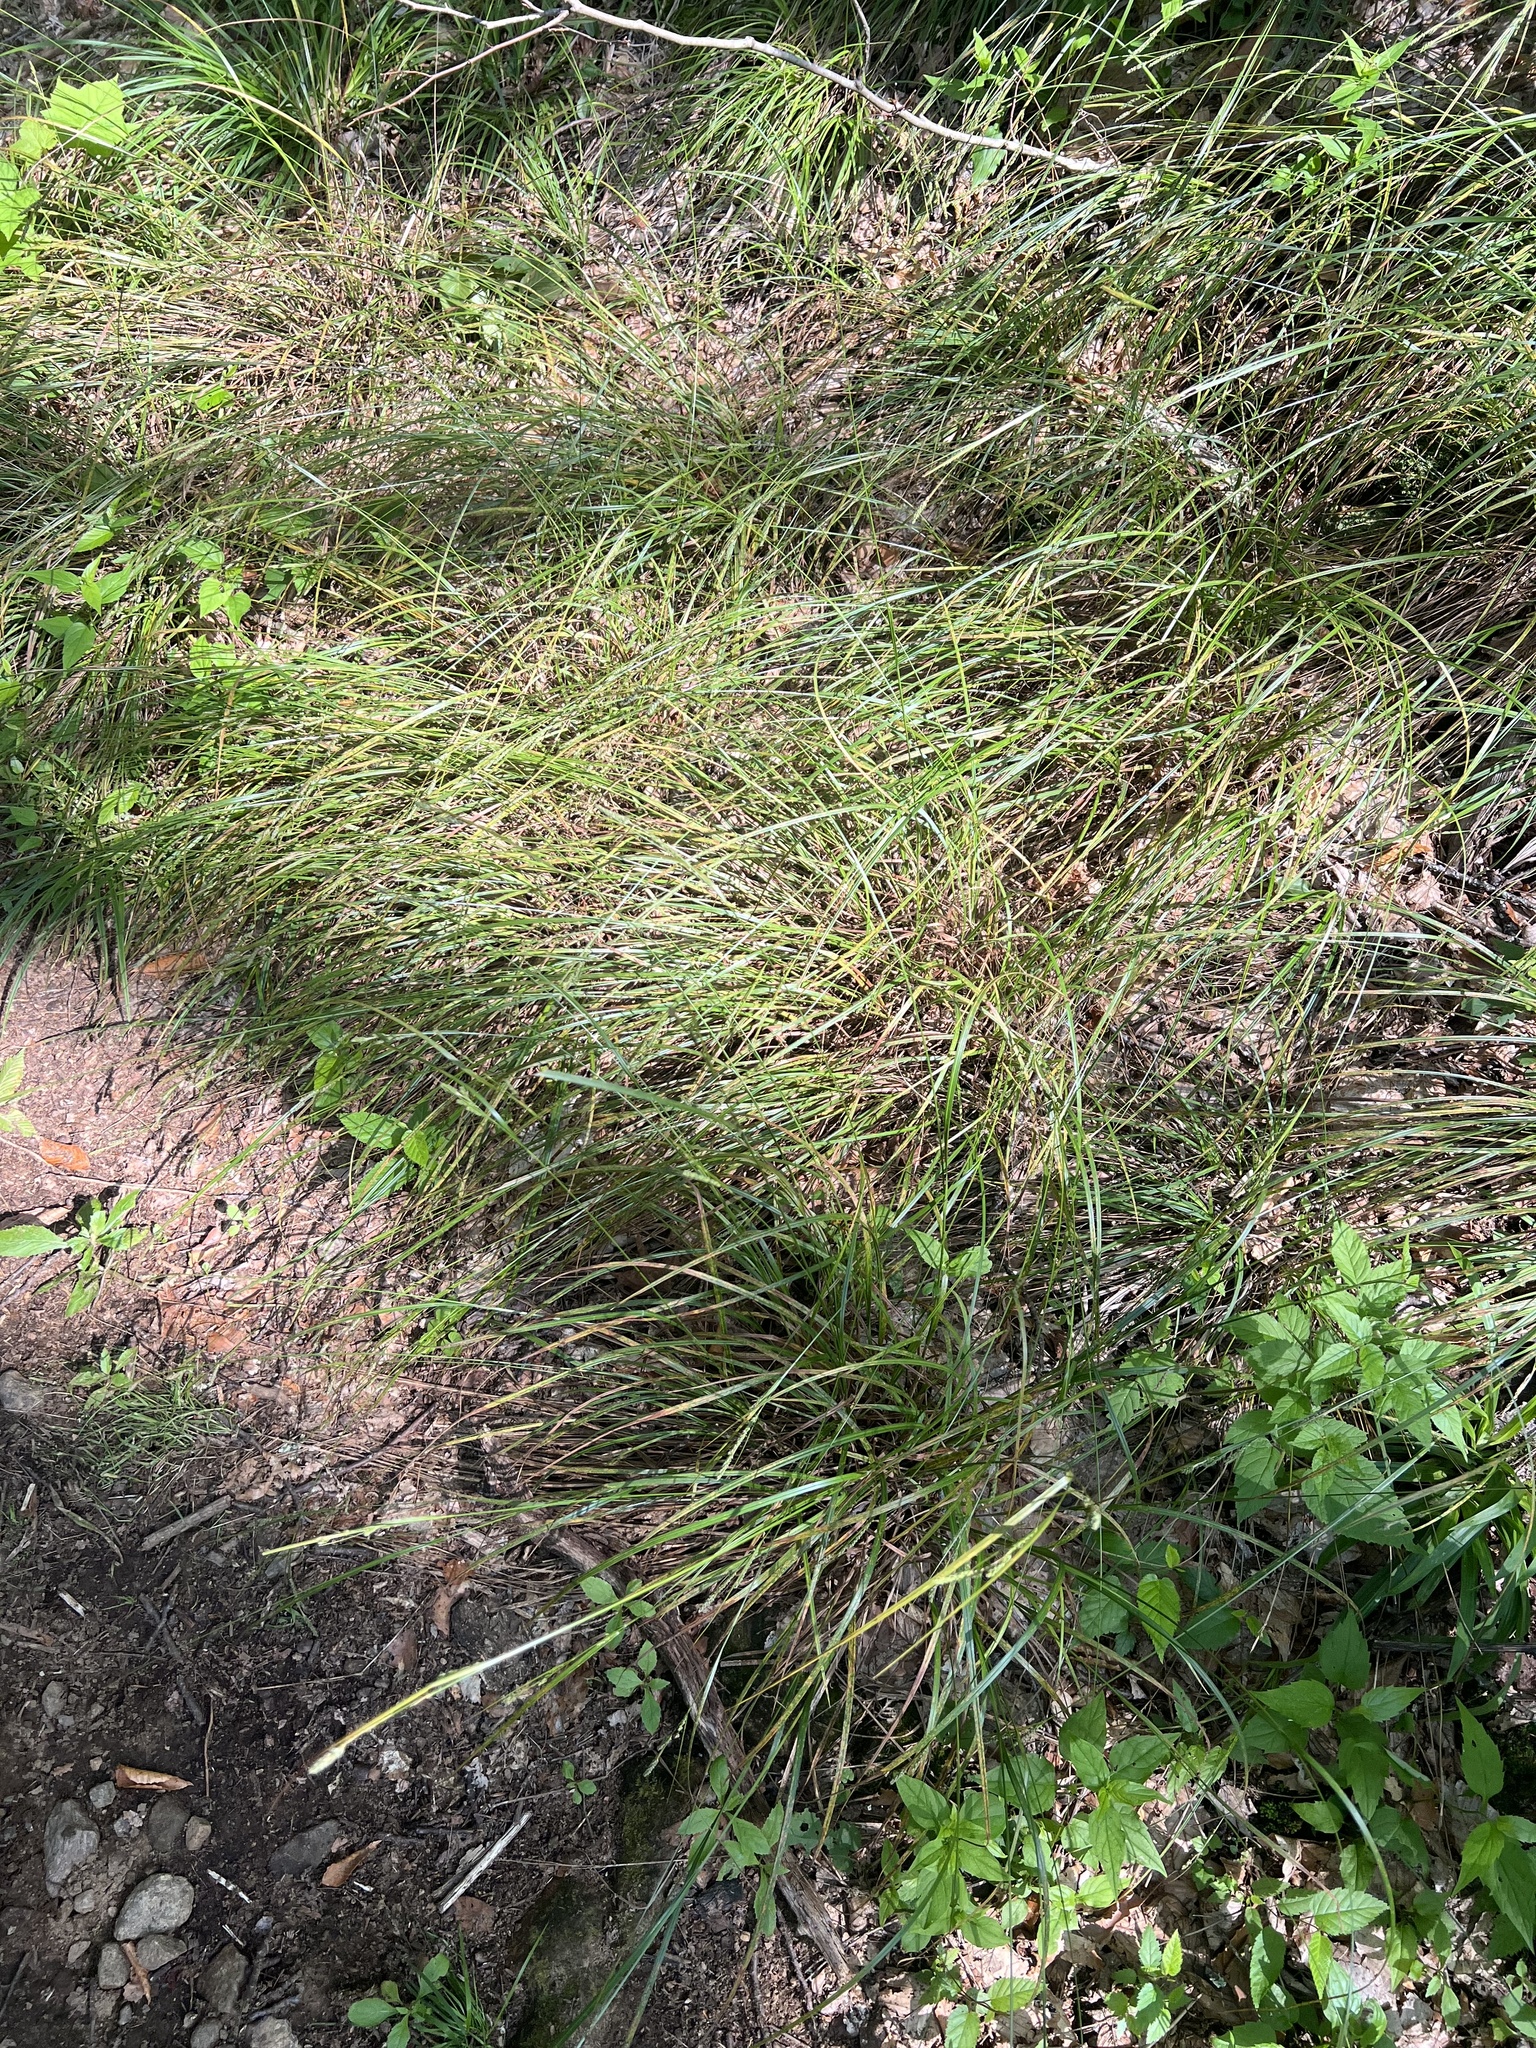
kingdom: Plantae
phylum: Tracheophyta
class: Liliopsida
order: Poales
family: Cyperaceae
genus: Carex
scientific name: Carex swanii
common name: Downy green sedge
